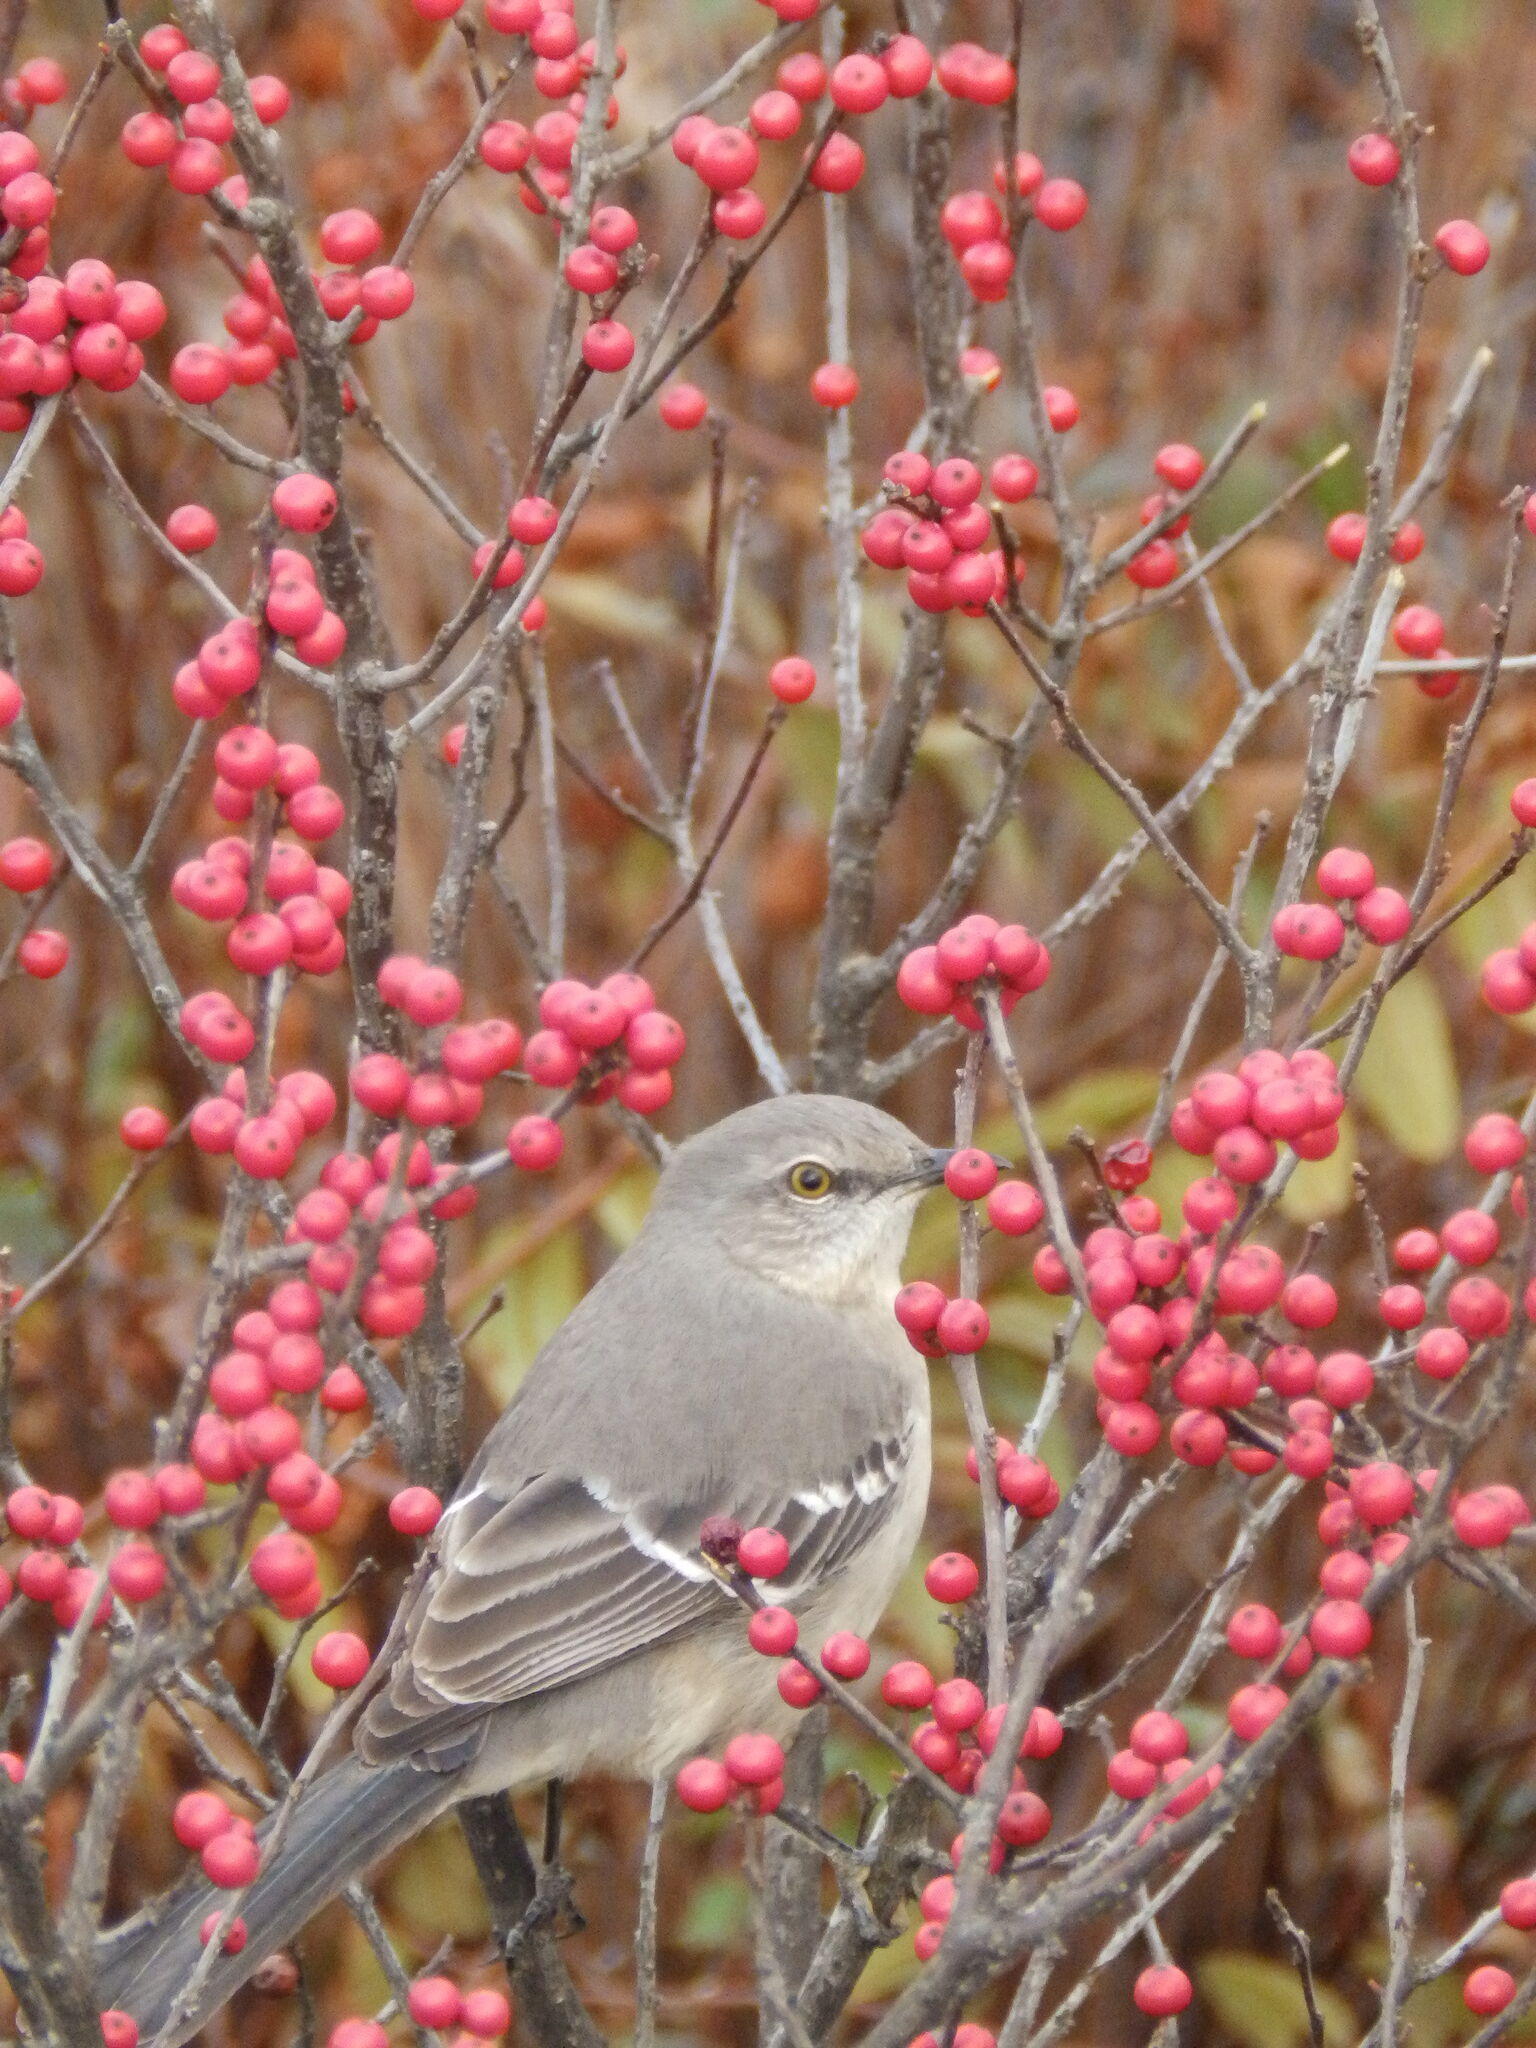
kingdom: Animalia
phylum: Chordata
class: Aves
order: Passeriformes
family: Mimidae
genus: Mimus
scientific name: Mimus polyglottos
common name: Northern mockingbird
